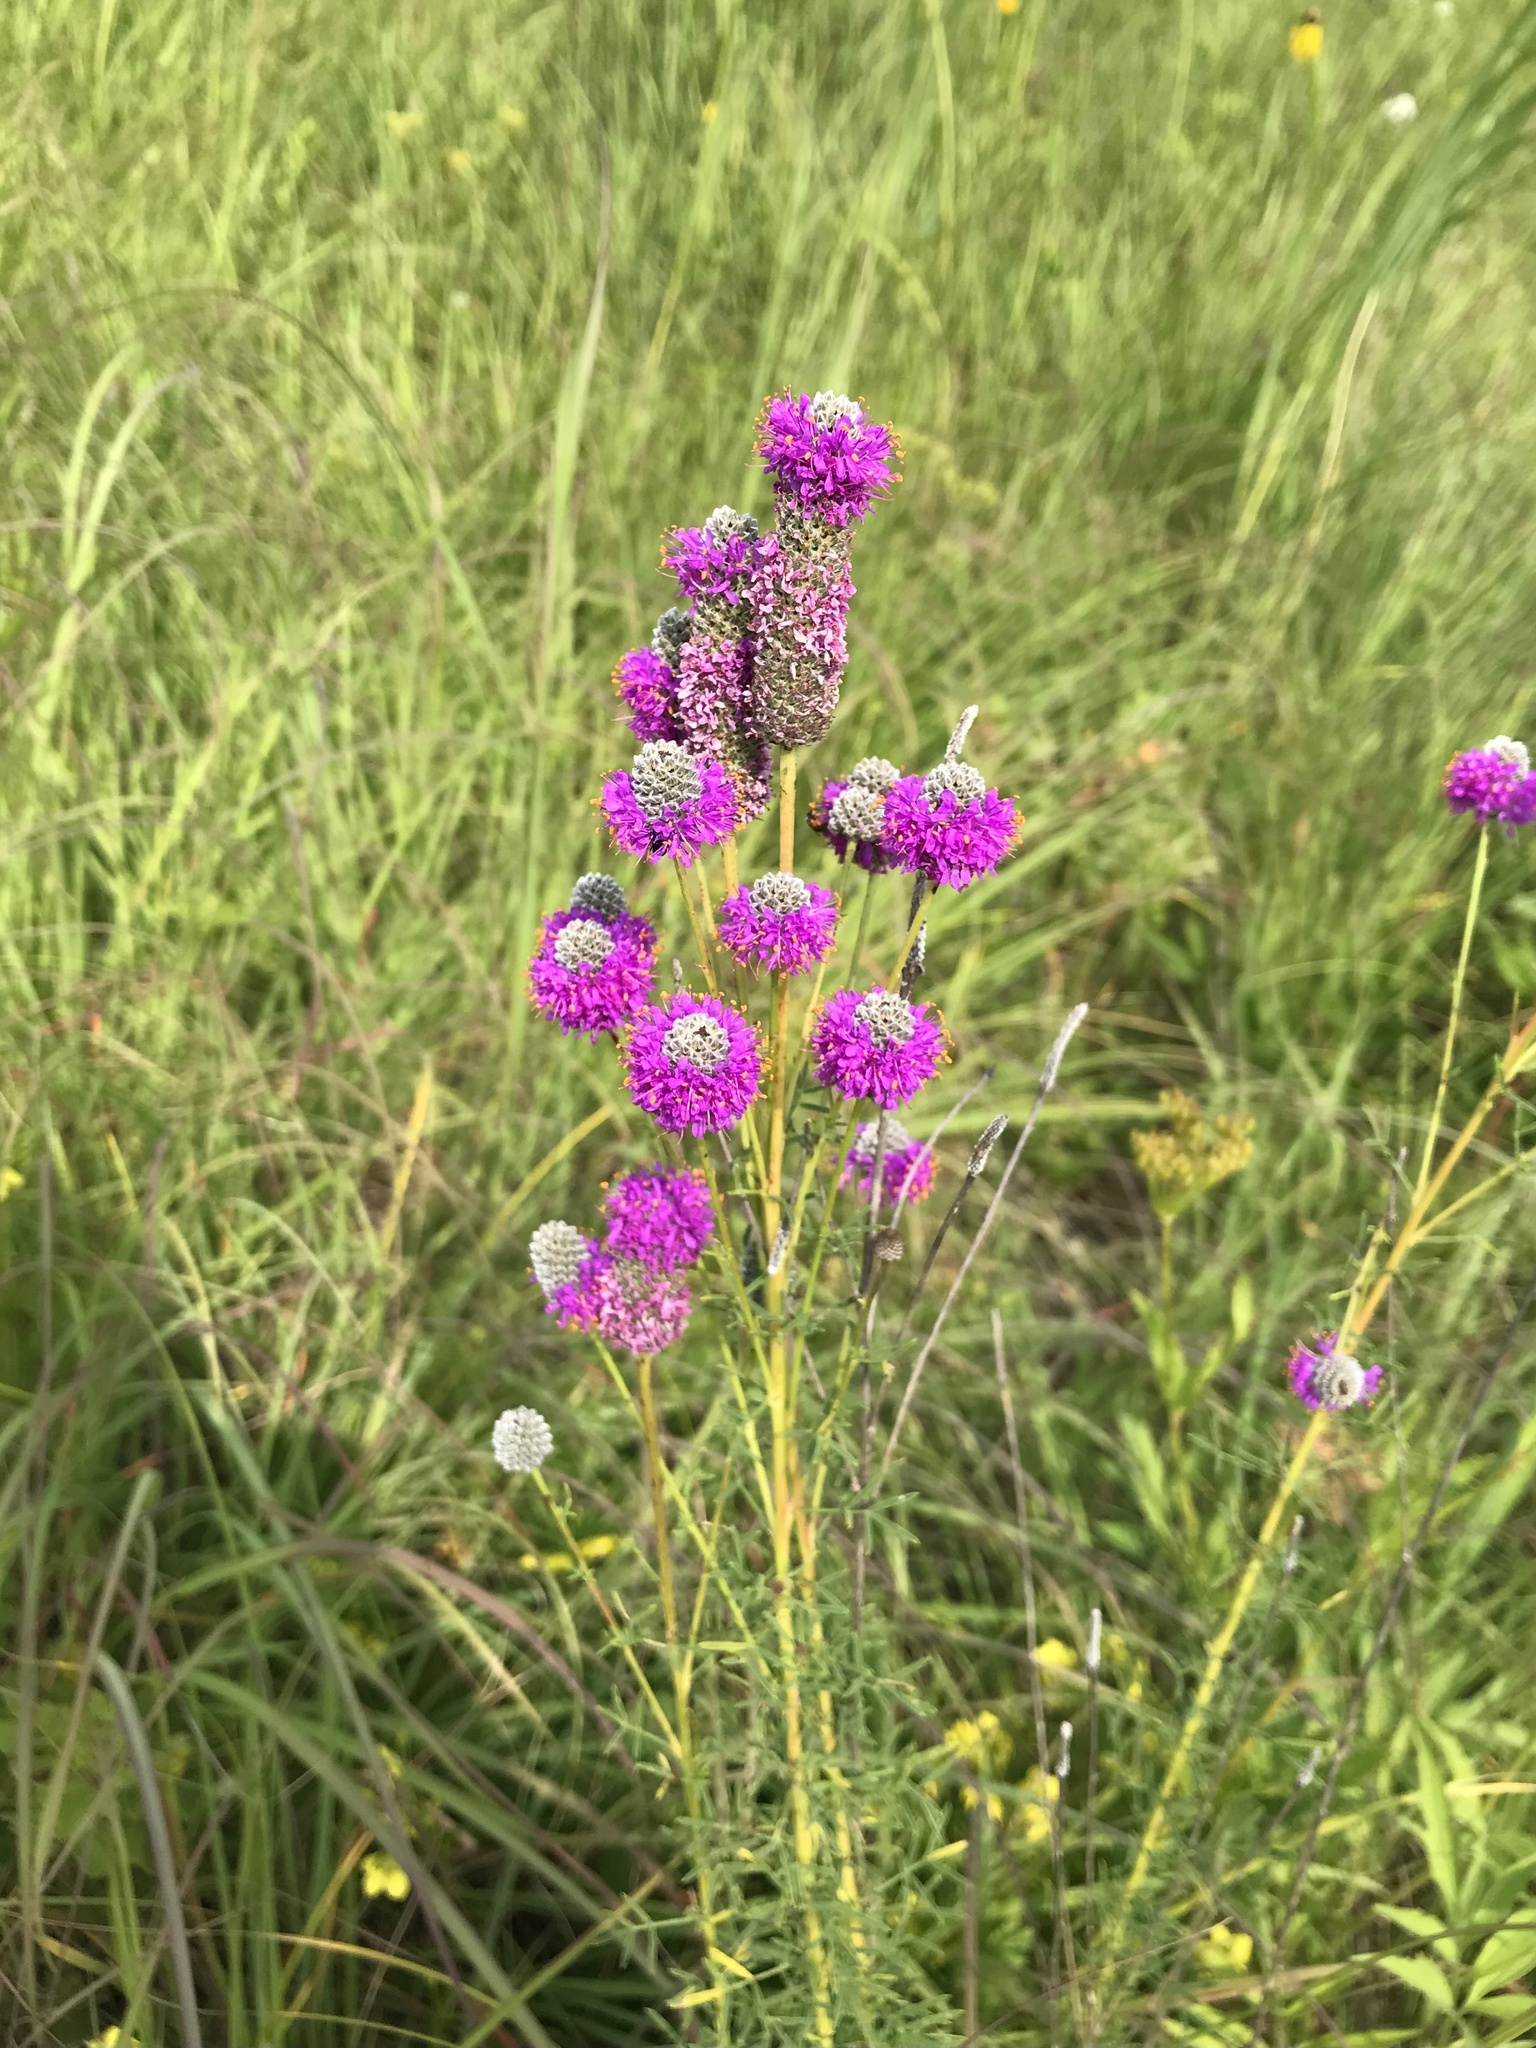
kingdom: Plantae
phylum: Tracheophyta
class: Magnoliopsida
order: Fabales
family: Fabaceae
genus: Dalea
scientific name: Dalea purpurea
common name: Purple prairie-clover
